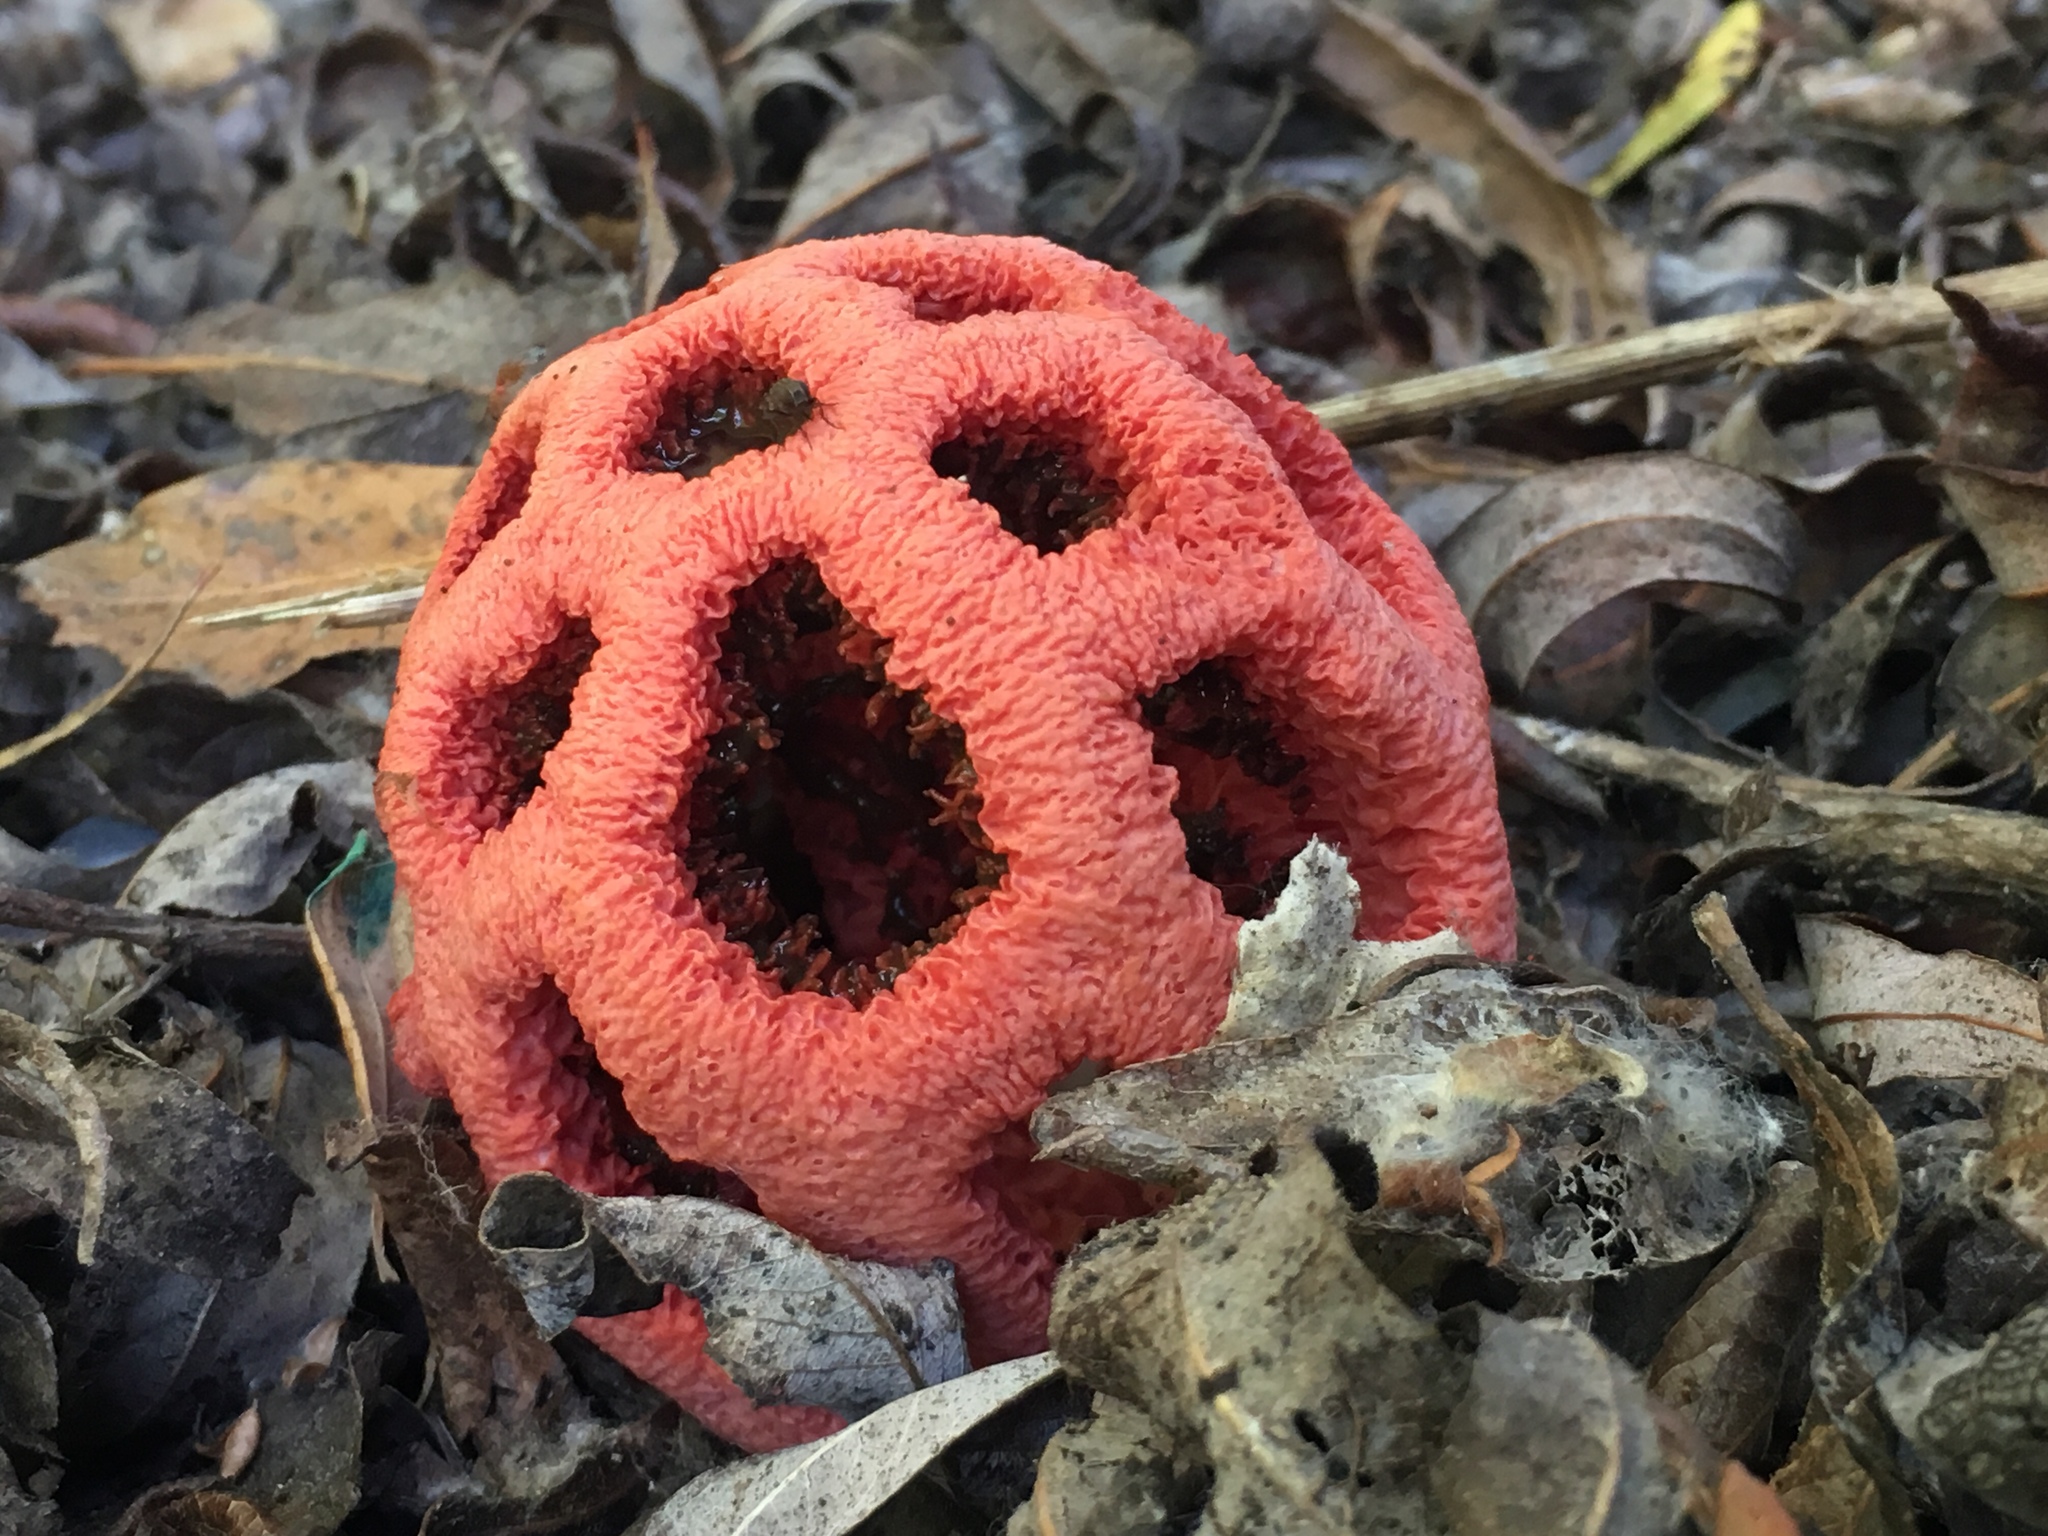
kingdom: Fungi
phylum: Basidiomycota
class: Agaricomycetes
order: Phallales
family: Phallaceae
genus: Clathrus
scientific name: Clathrus ruber
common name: Red cage
